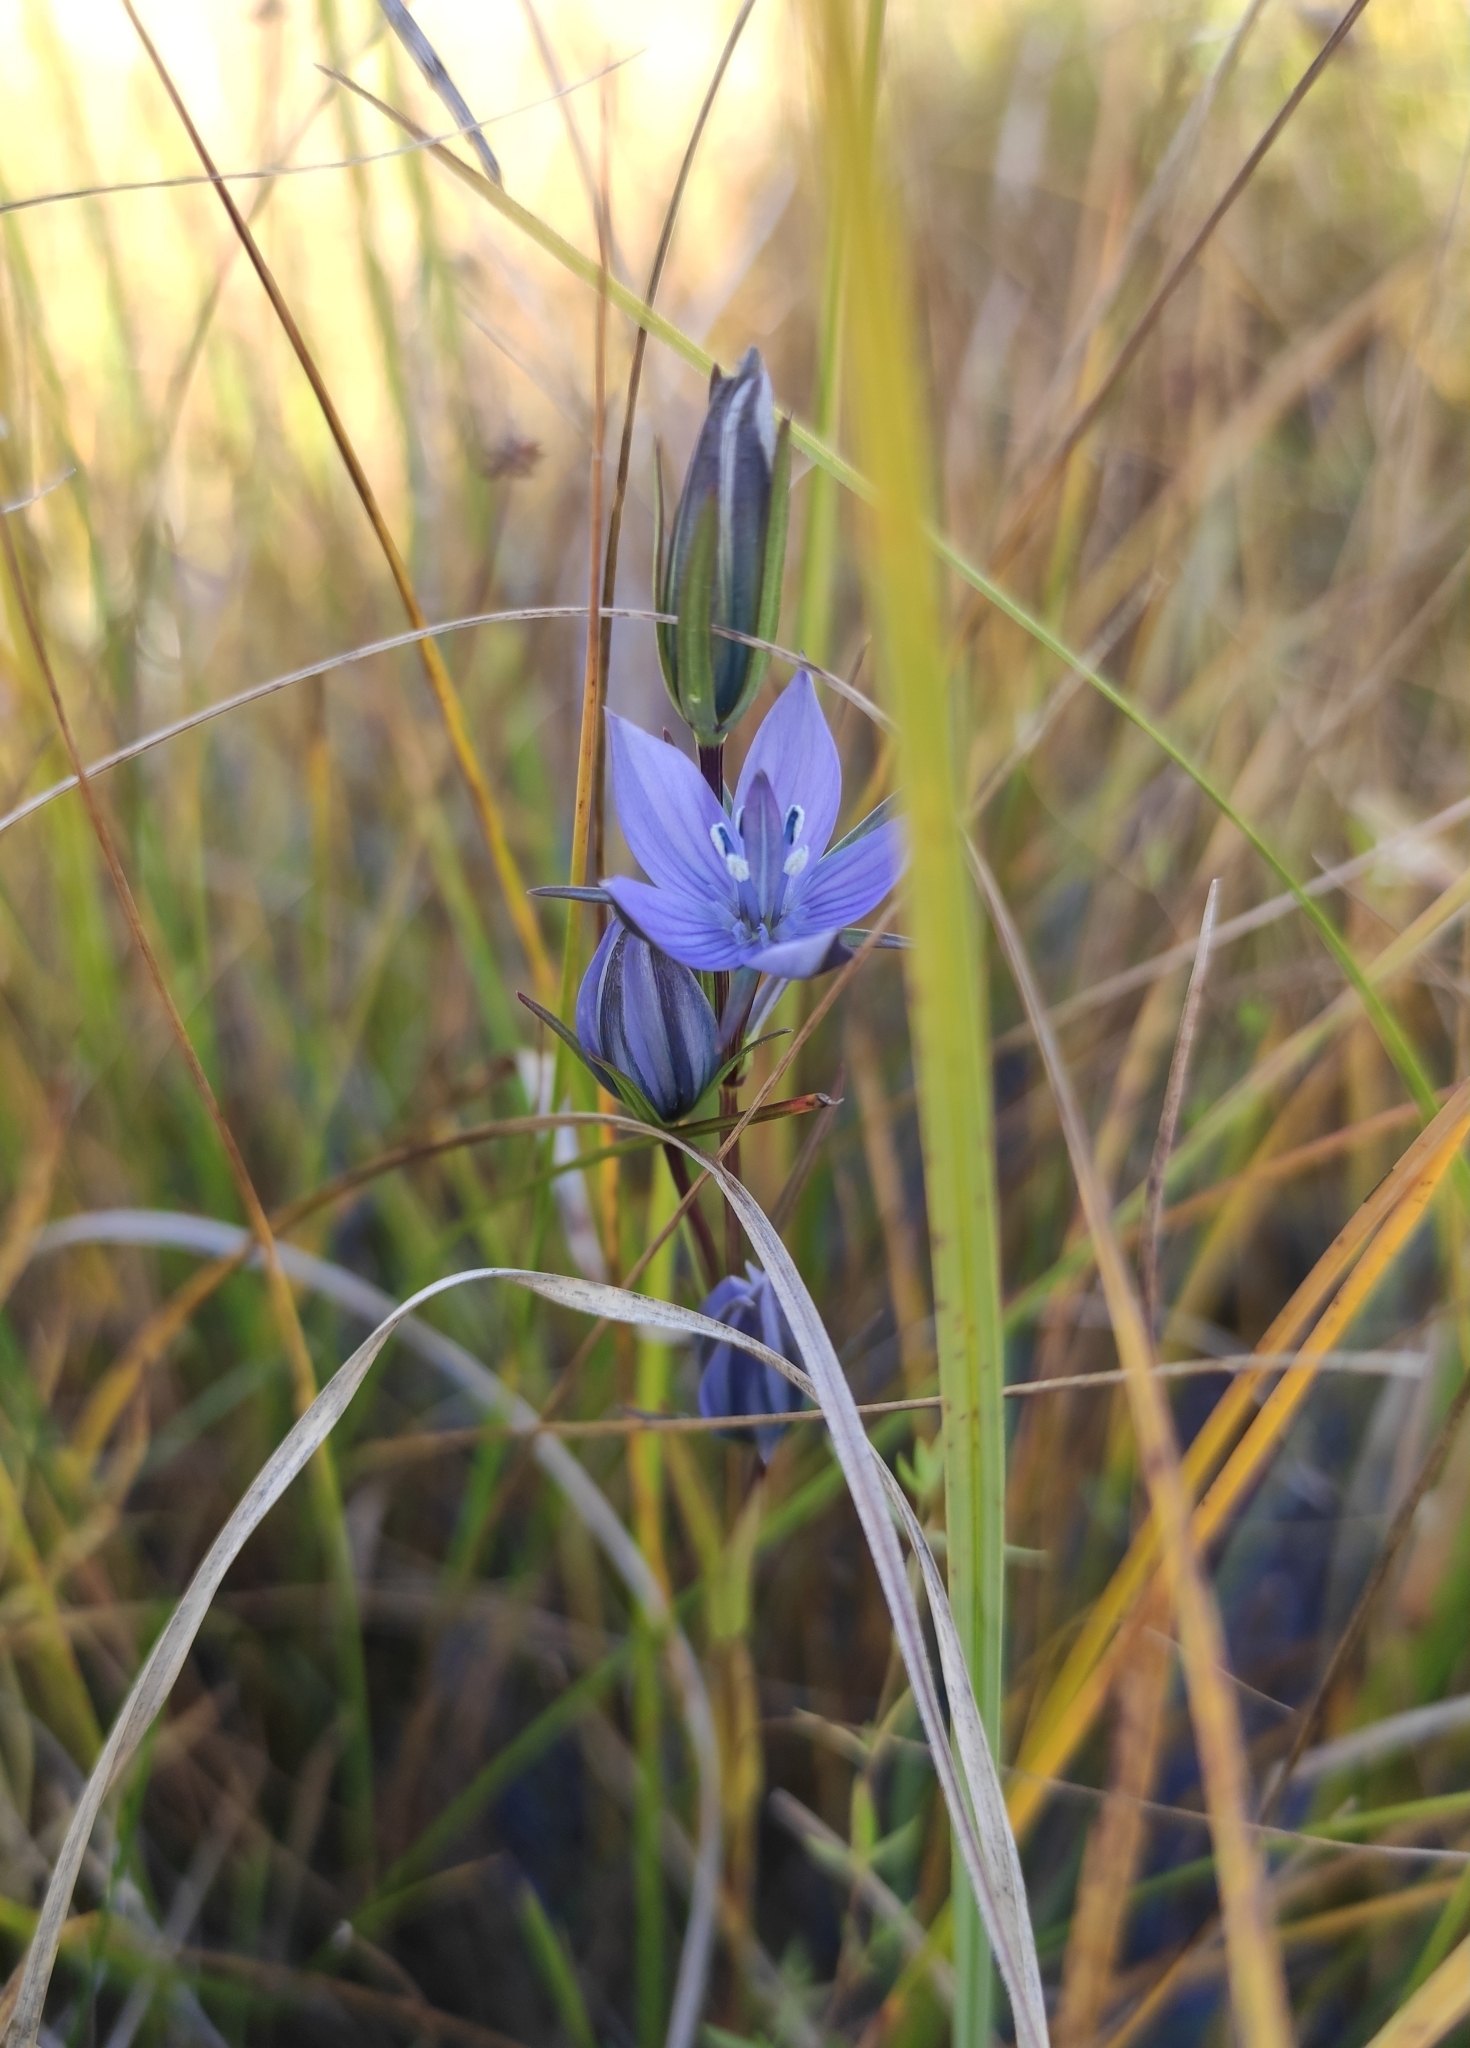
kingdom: Plantae
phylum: Tracheophyta
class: Magnoliopsida
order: Gentianales
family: Gentianaceae
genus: Lomatogonium
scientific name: Lomatogonium rotatum
